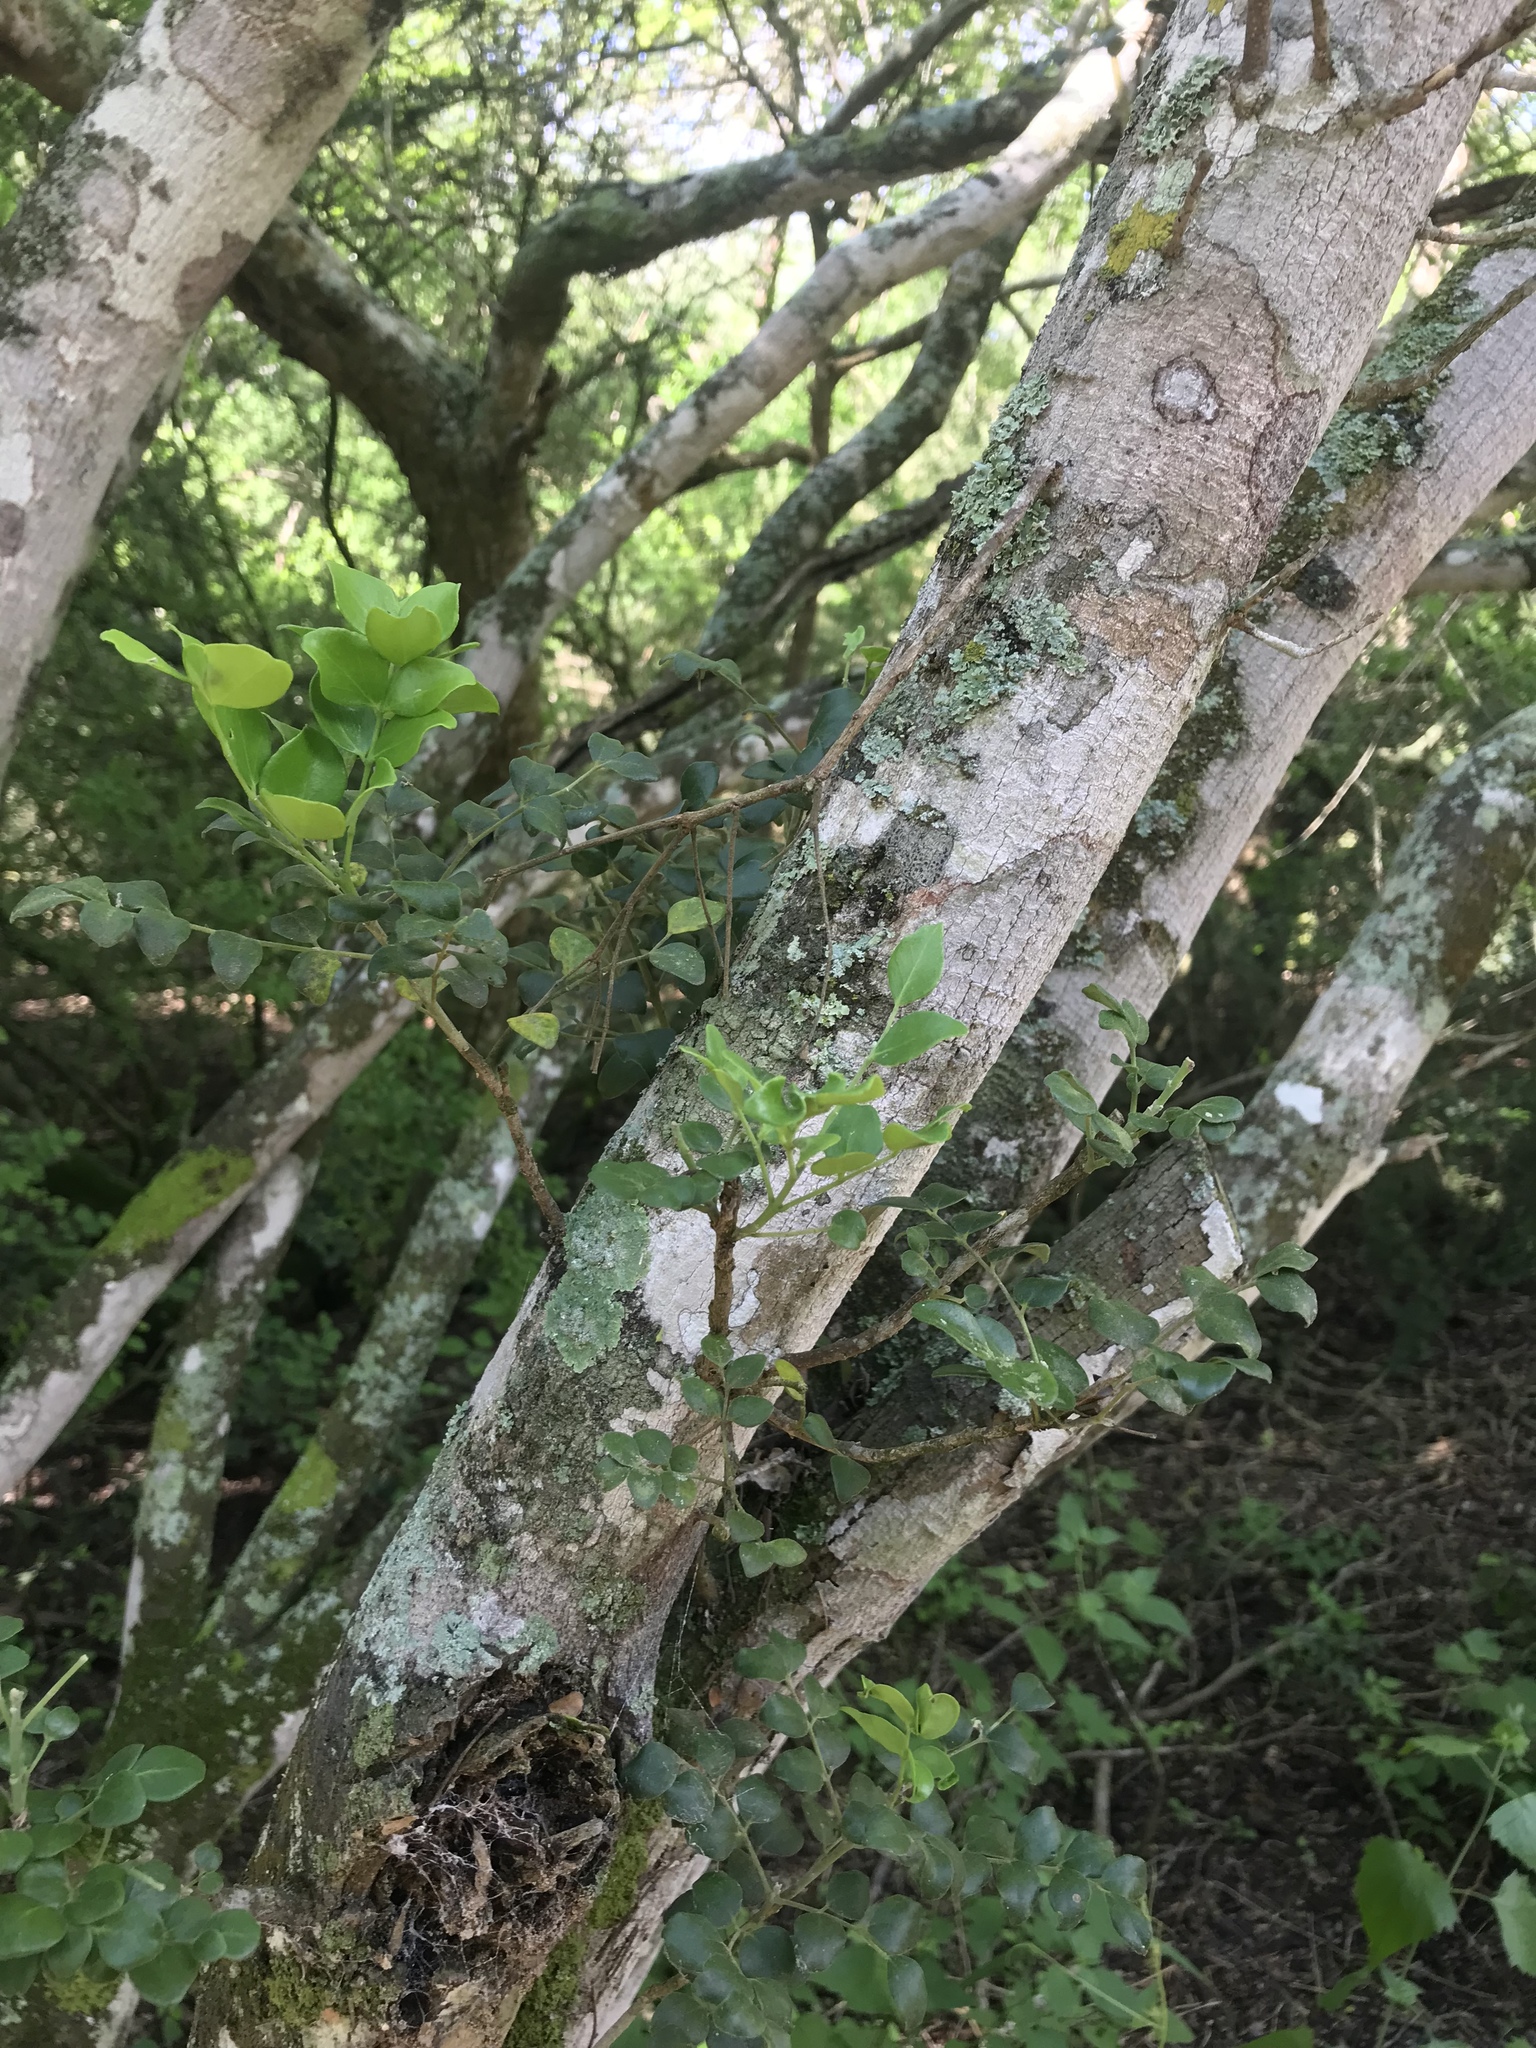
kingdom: Plantae
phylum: Tracheophyta
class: Magnoliopsida
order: Sapindales
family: Rutaceae
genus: Amyris
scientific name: Amyris madrensis
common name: Mountain torchwood
